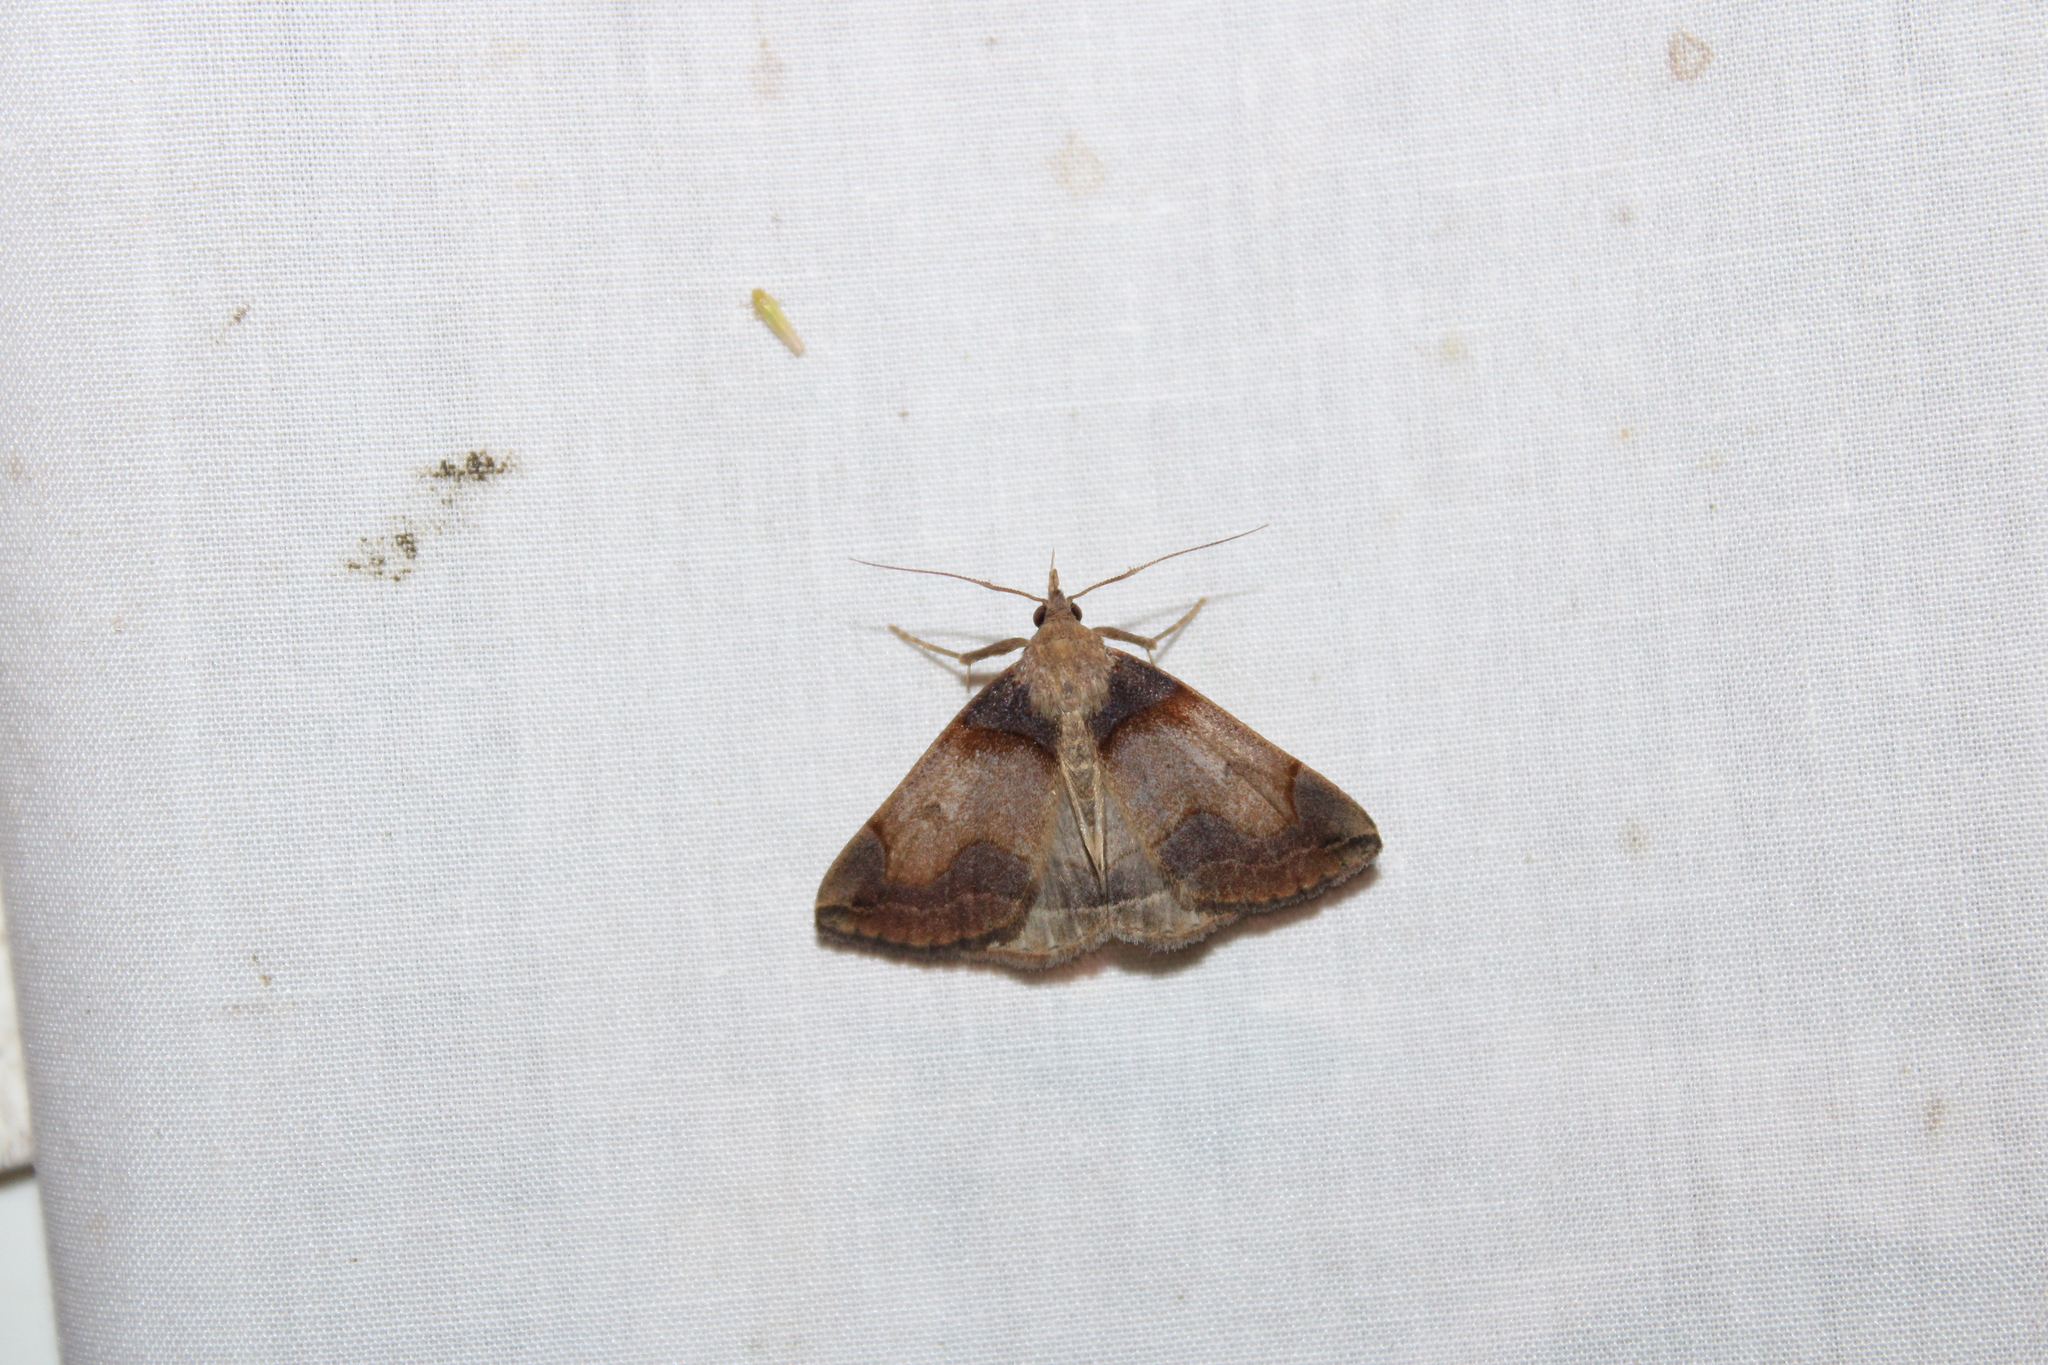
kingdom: Animalia
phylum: Arthropoda
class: Insecta
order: Lepidoptera
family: Erebidae
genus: Zanclognatha
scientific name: Zanclognatha laevigata
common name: Variable fan-foot
